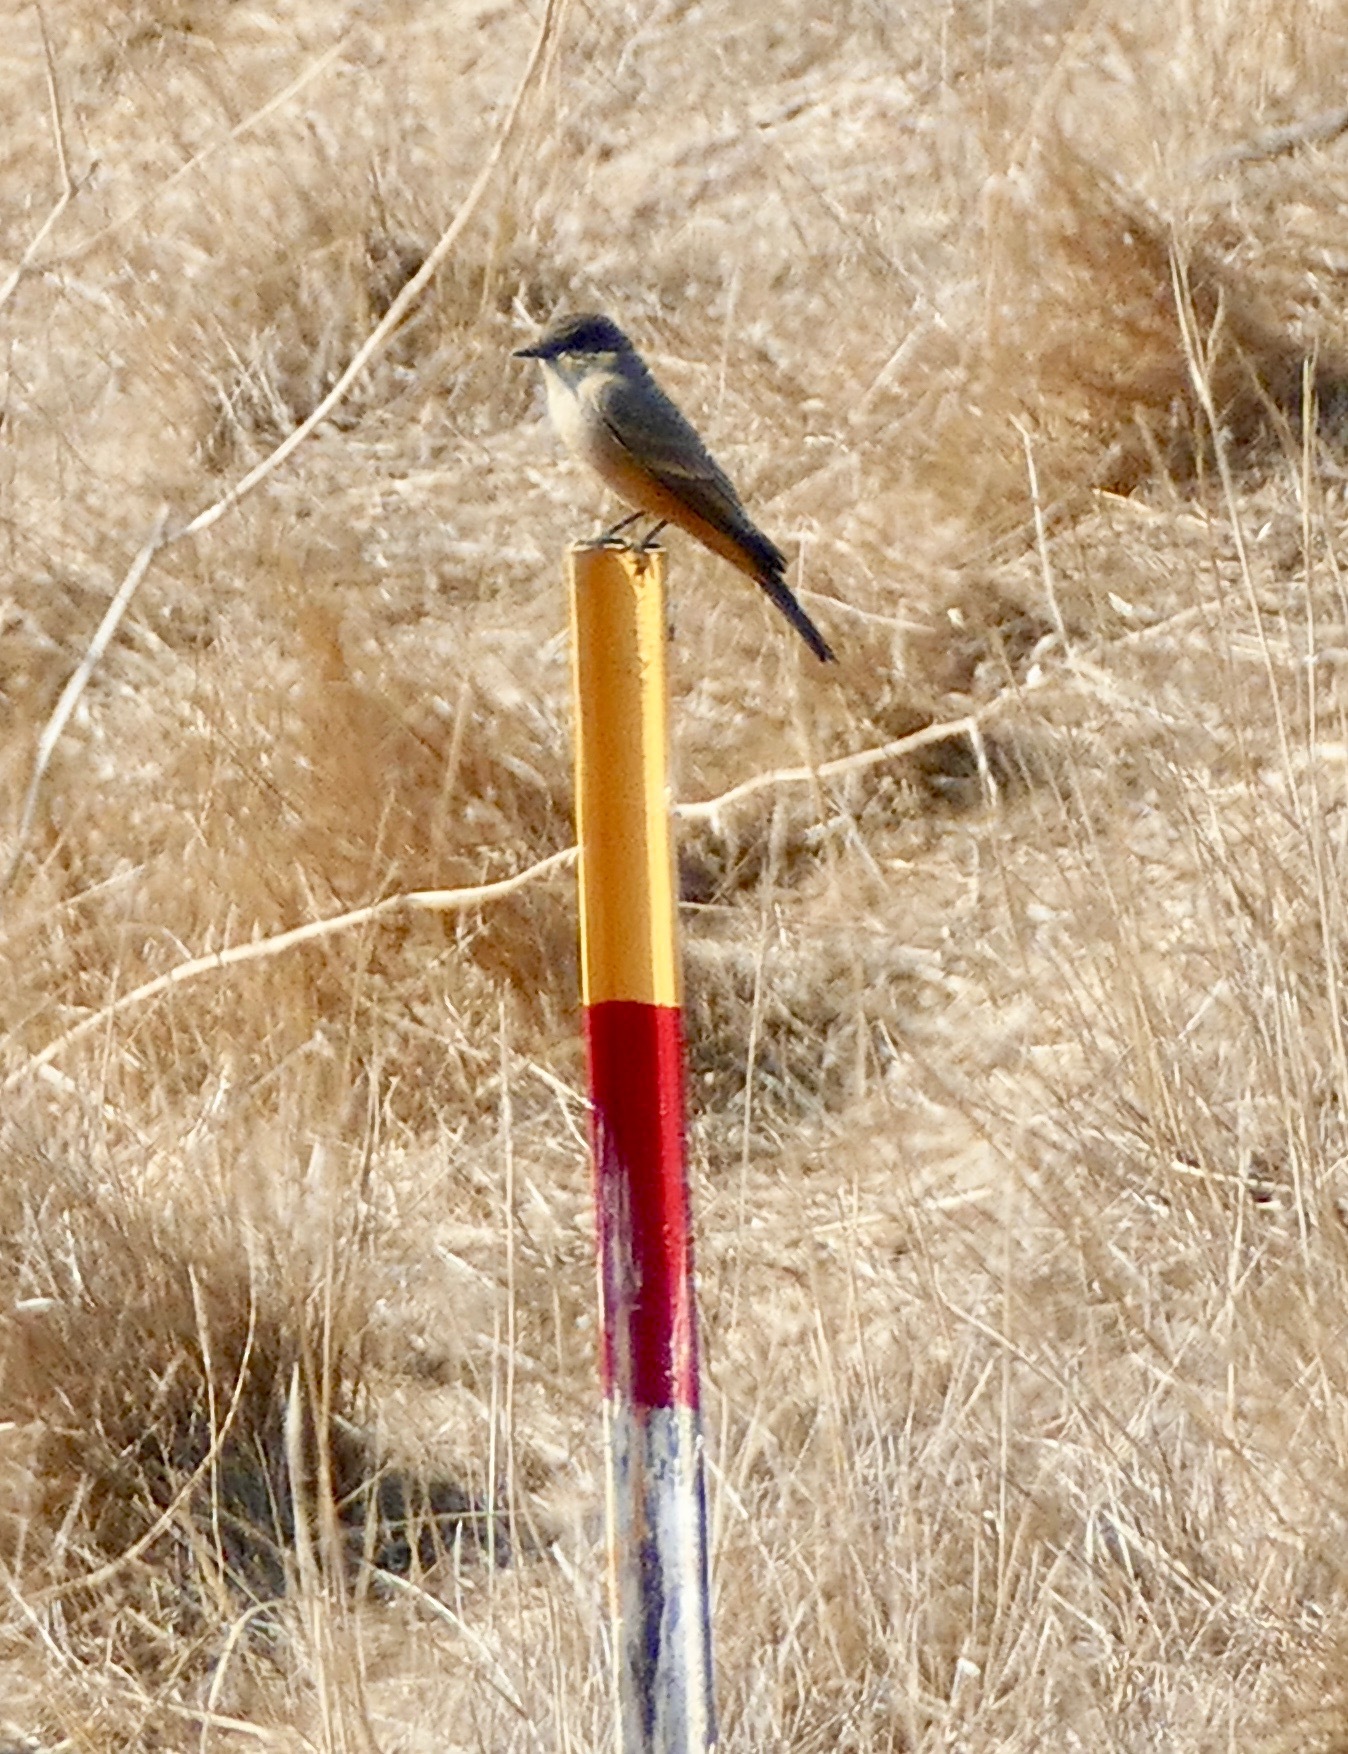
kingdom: Animalia
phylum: Chordata
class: Aves
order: Passeriformes
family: Tyrannidae
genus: Sayornis
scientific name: Sayornis saya
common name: Say's phoebe
